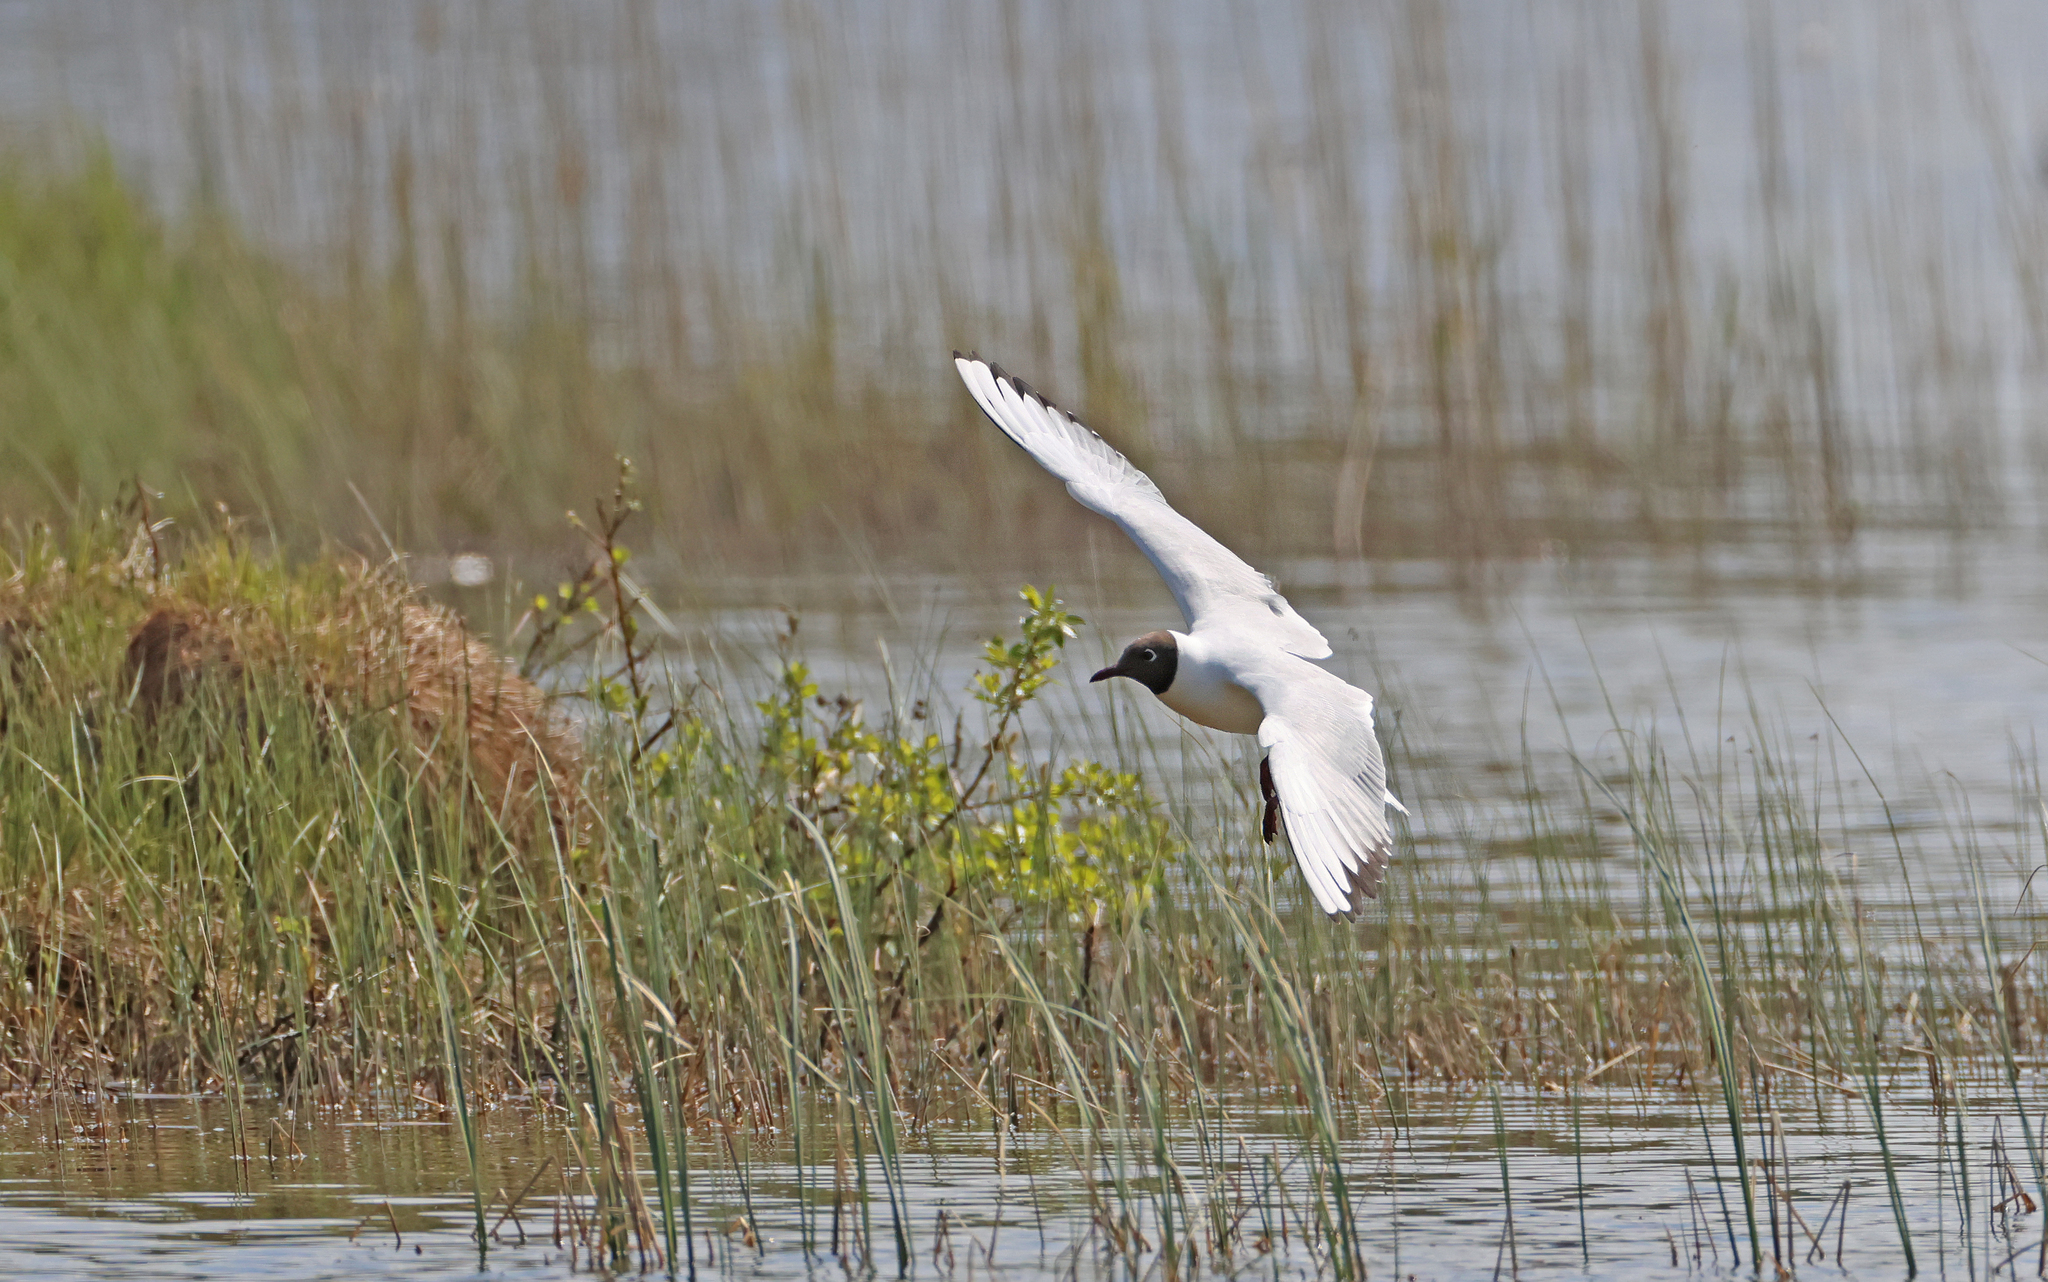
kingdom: Animalia
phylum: Chordata
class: Aves
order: Charadriiformes
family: Laridae
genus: Chroicocephalus
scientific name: Chroicocephalus ridibundus
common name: Black-headed gull
